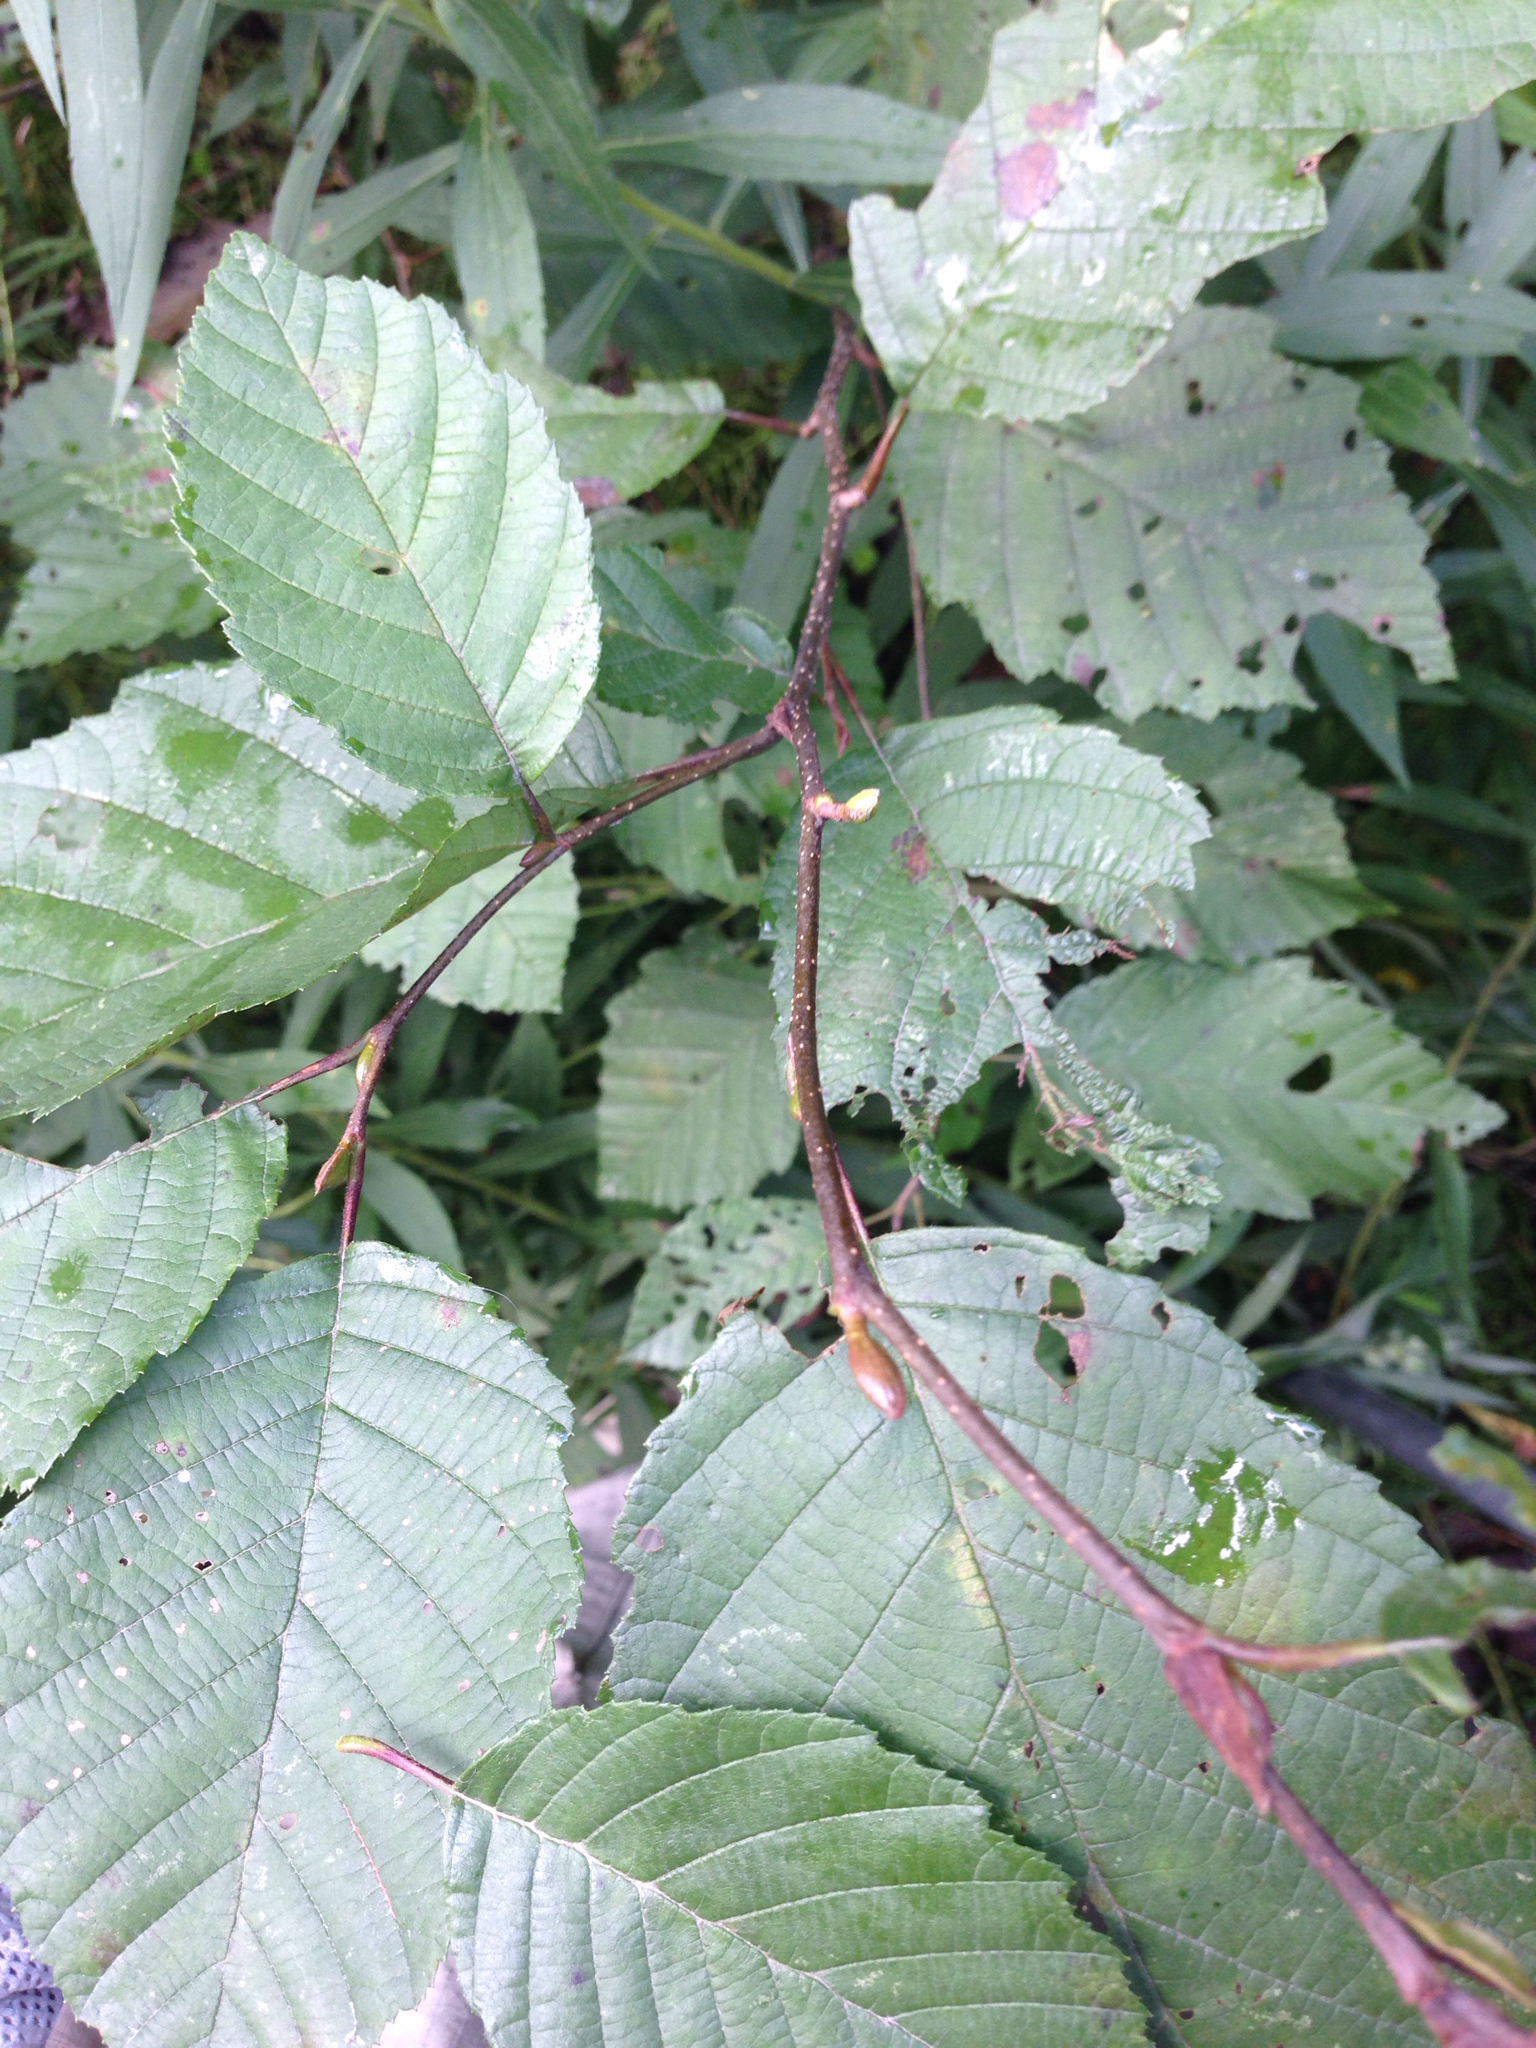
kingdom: Plantae
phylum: Tracheophyta
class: Magnoliopsida
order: Fagales
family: Betulaceae
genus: Alnus
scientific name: Alnus incana
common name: Grey alder
